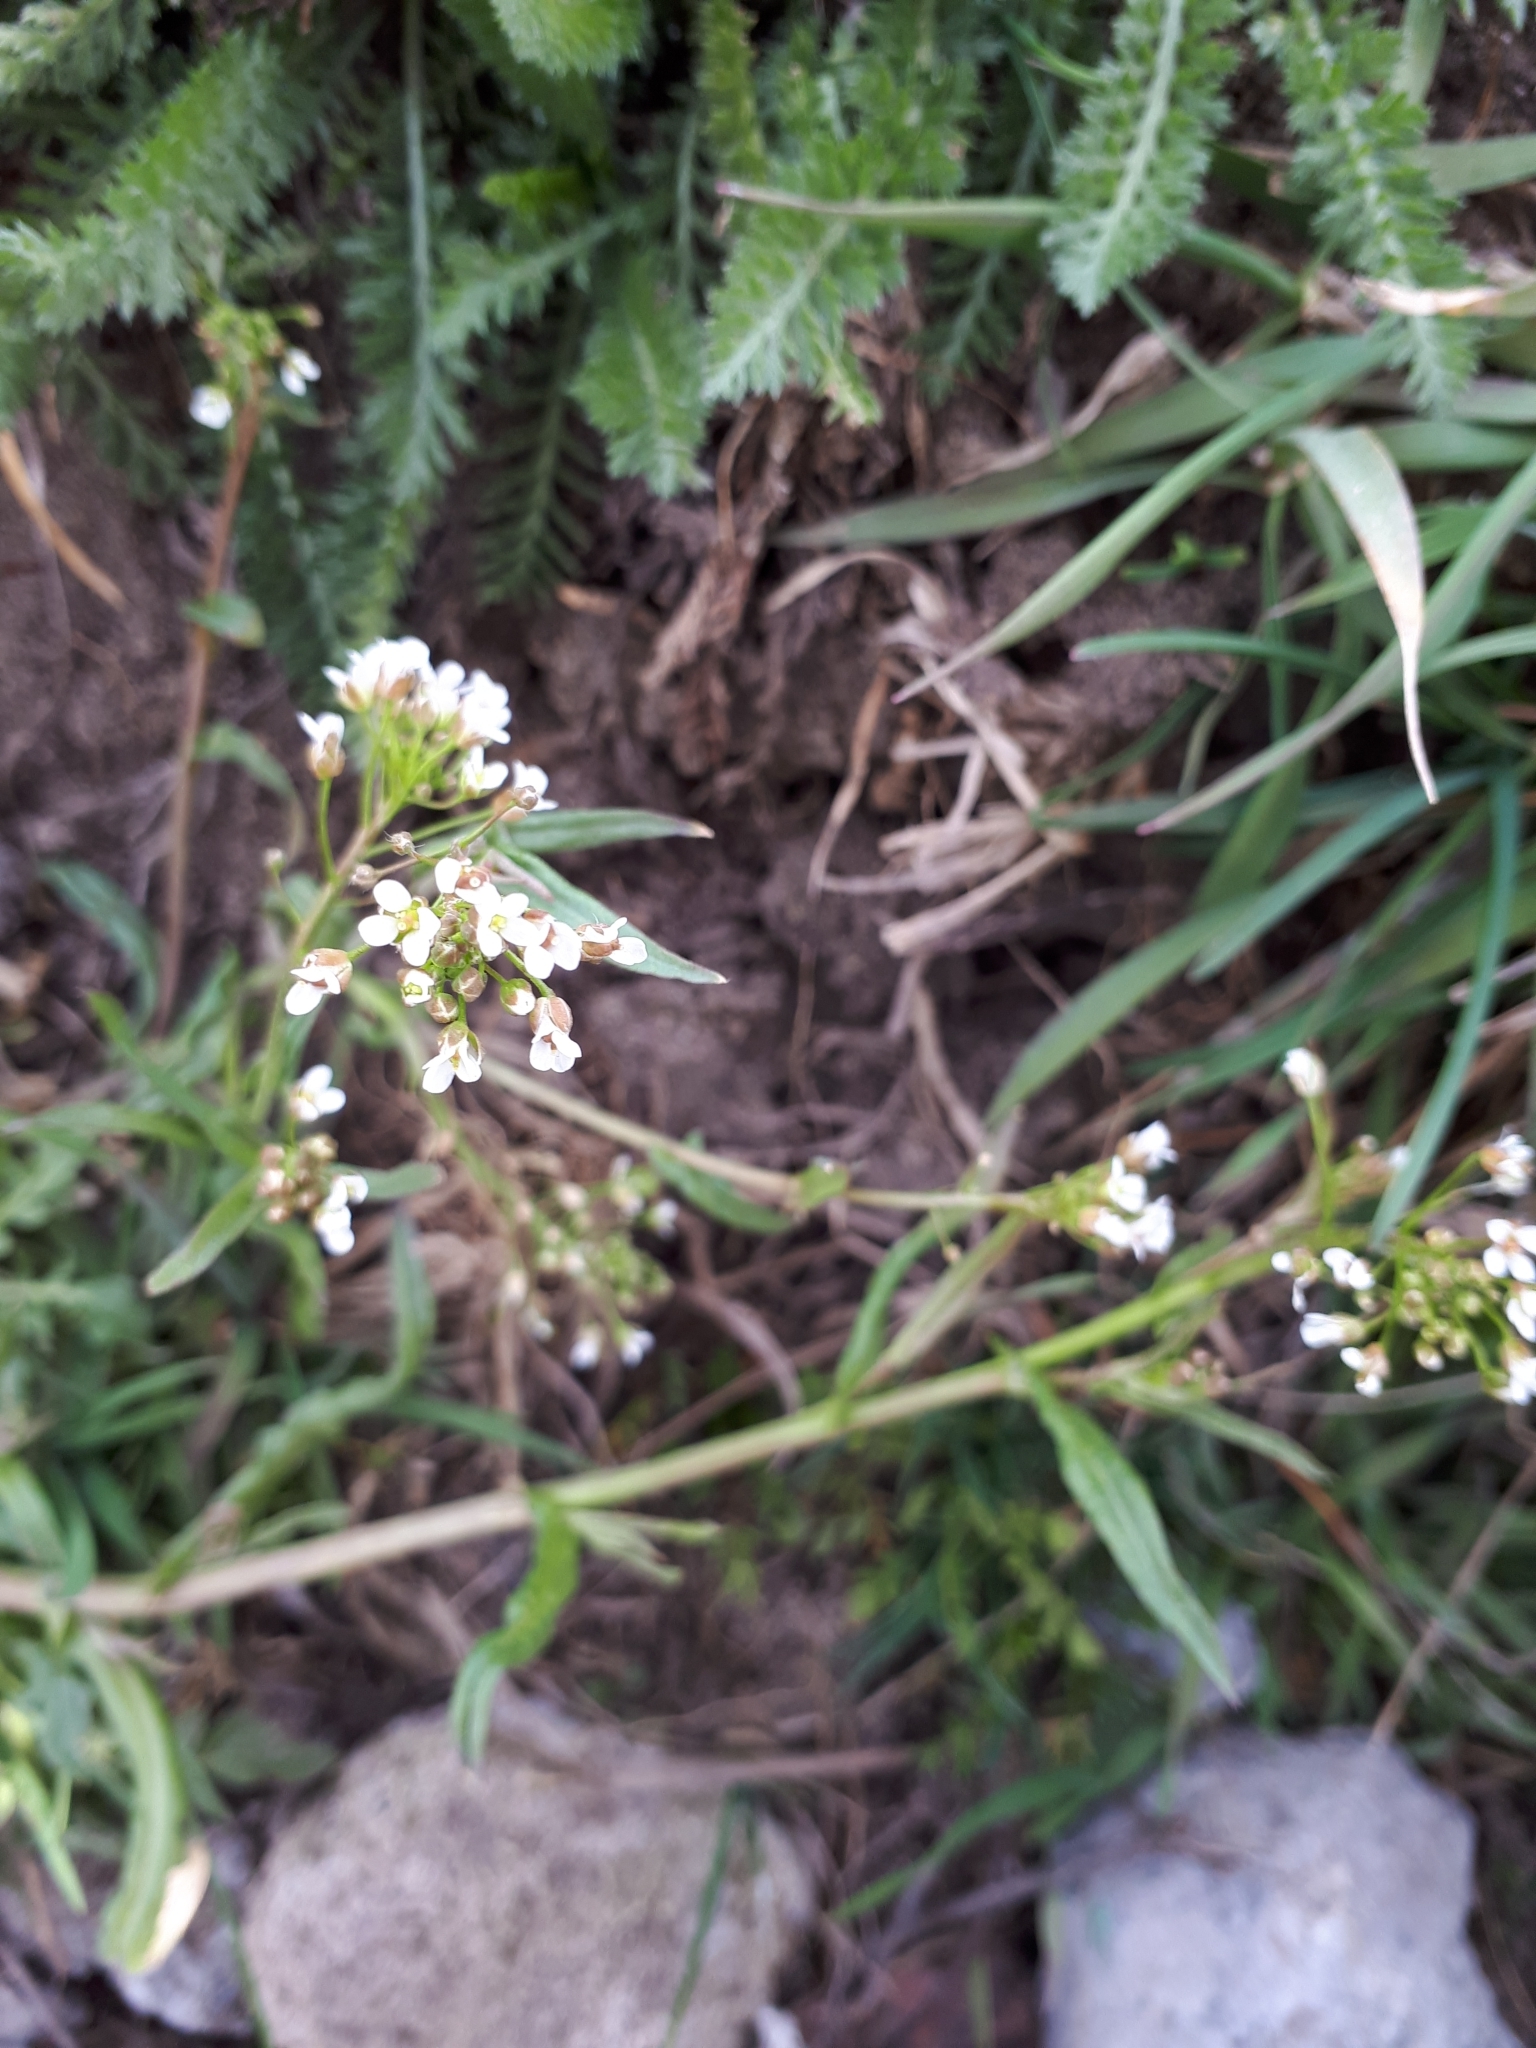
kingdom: Plantae
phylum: Tracheophyta
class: Magnoliopsida
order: Brassicales
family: Brassicaceae
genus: Capsella
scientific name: Capsella bursa-pastoris
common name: Shepherd's purse
